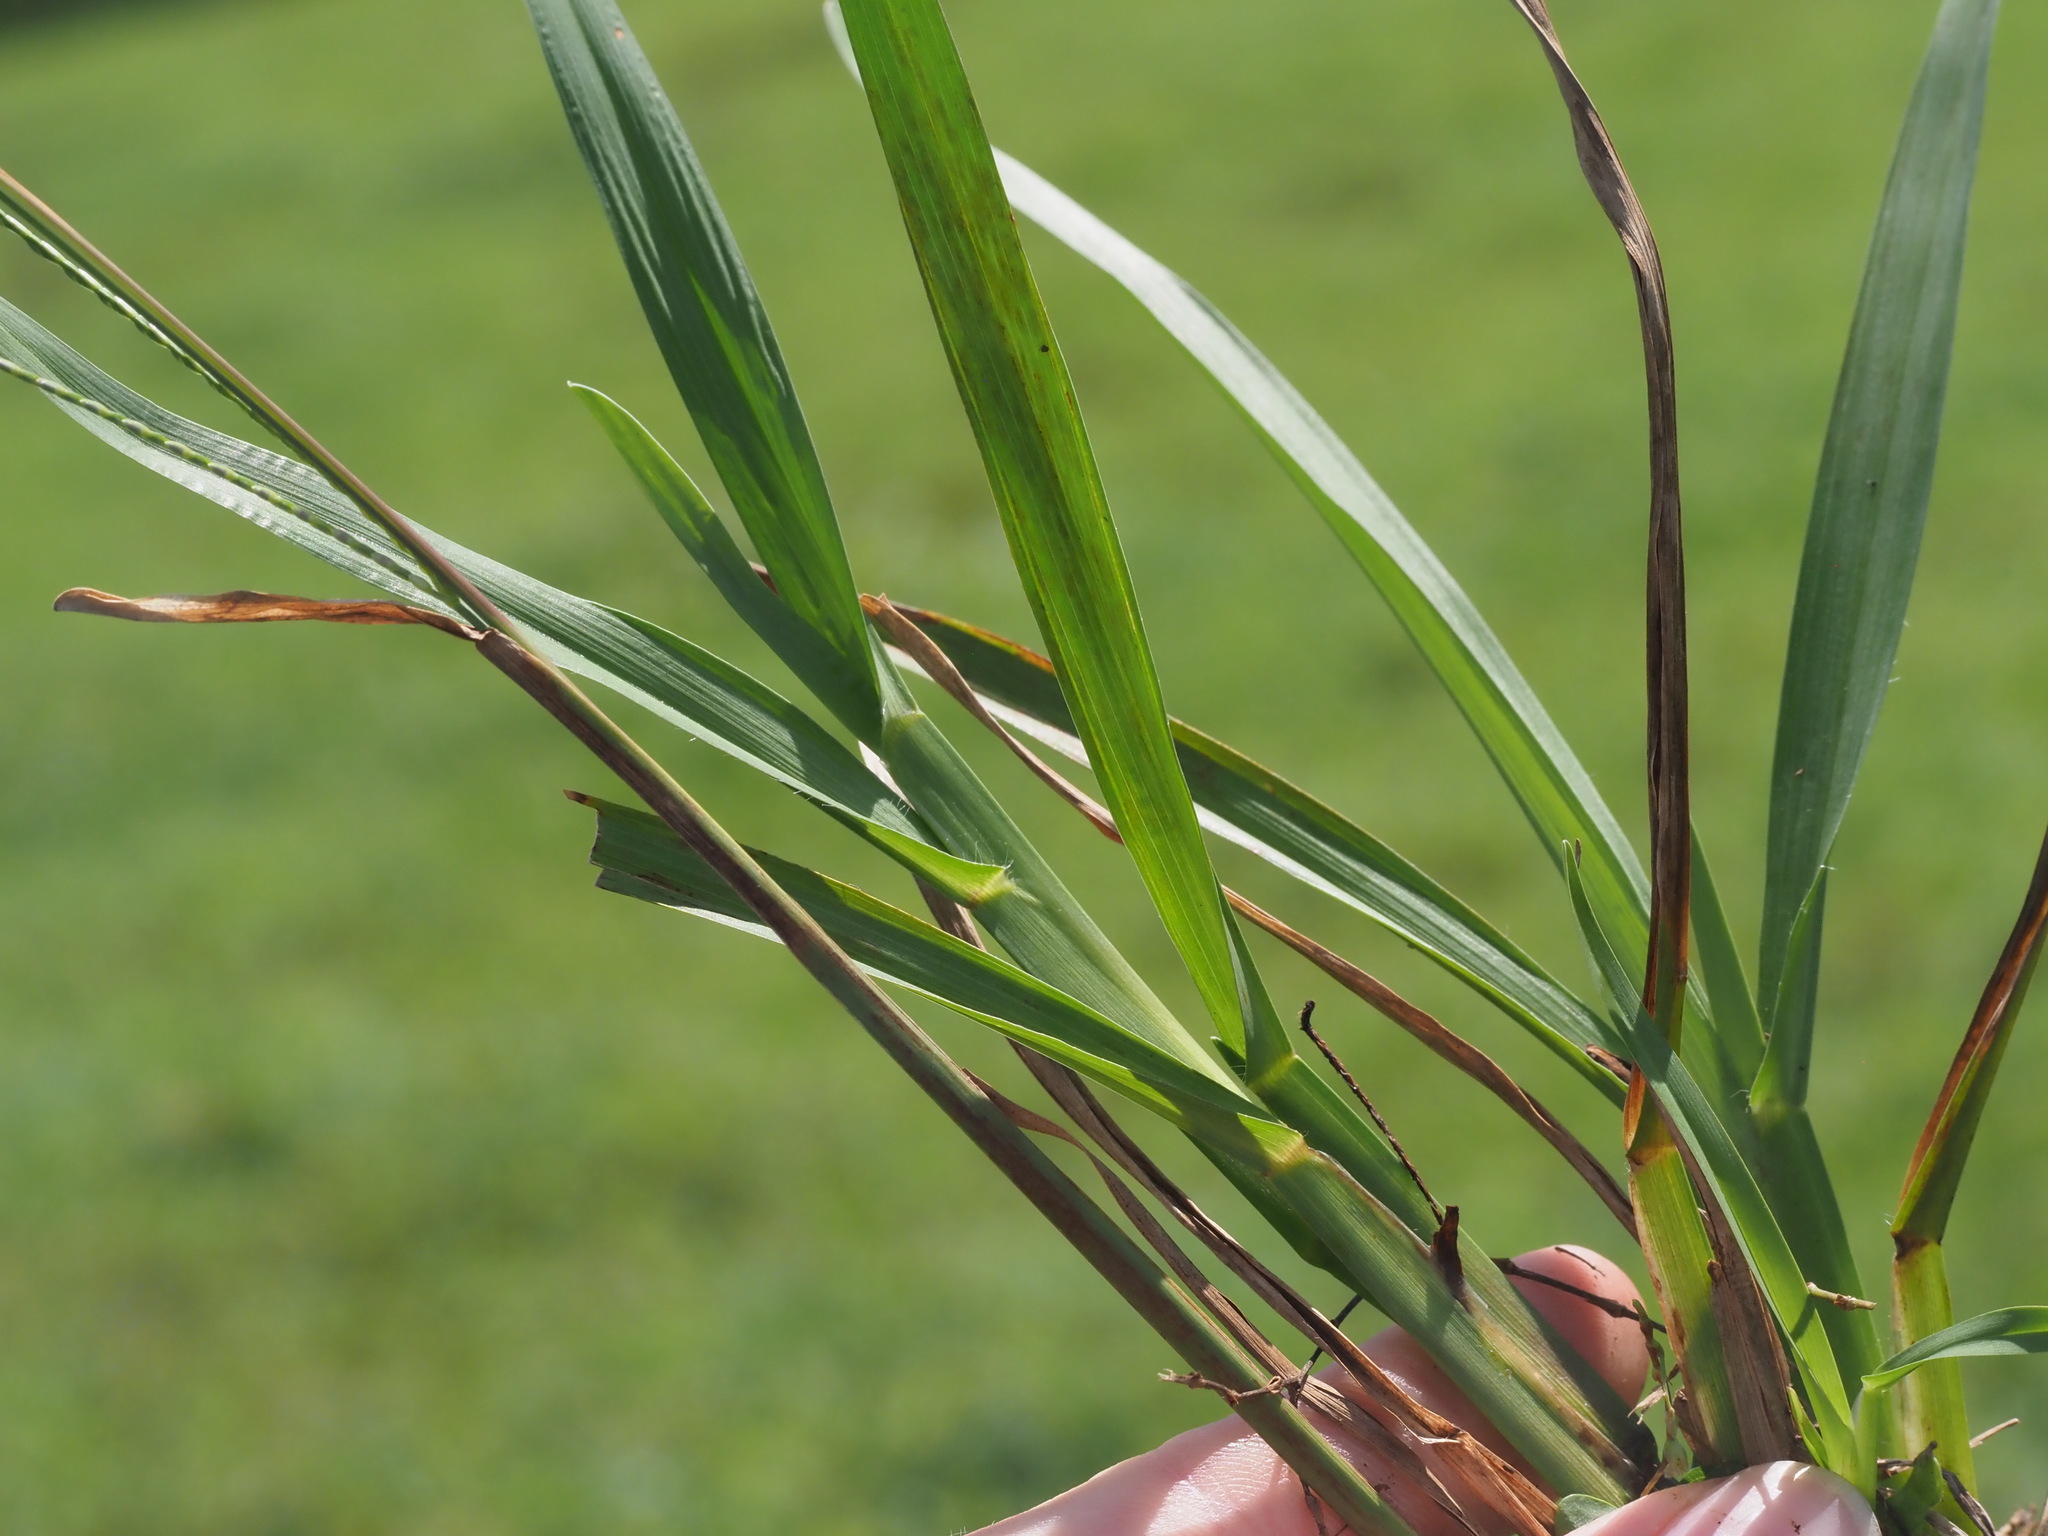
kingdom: Plantae
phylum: Tracheophyta
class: Liliopsida
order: Poales
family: Poaceae
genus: Axonopus
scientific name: Axonopus fissifolius
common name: Common carpetgrass
